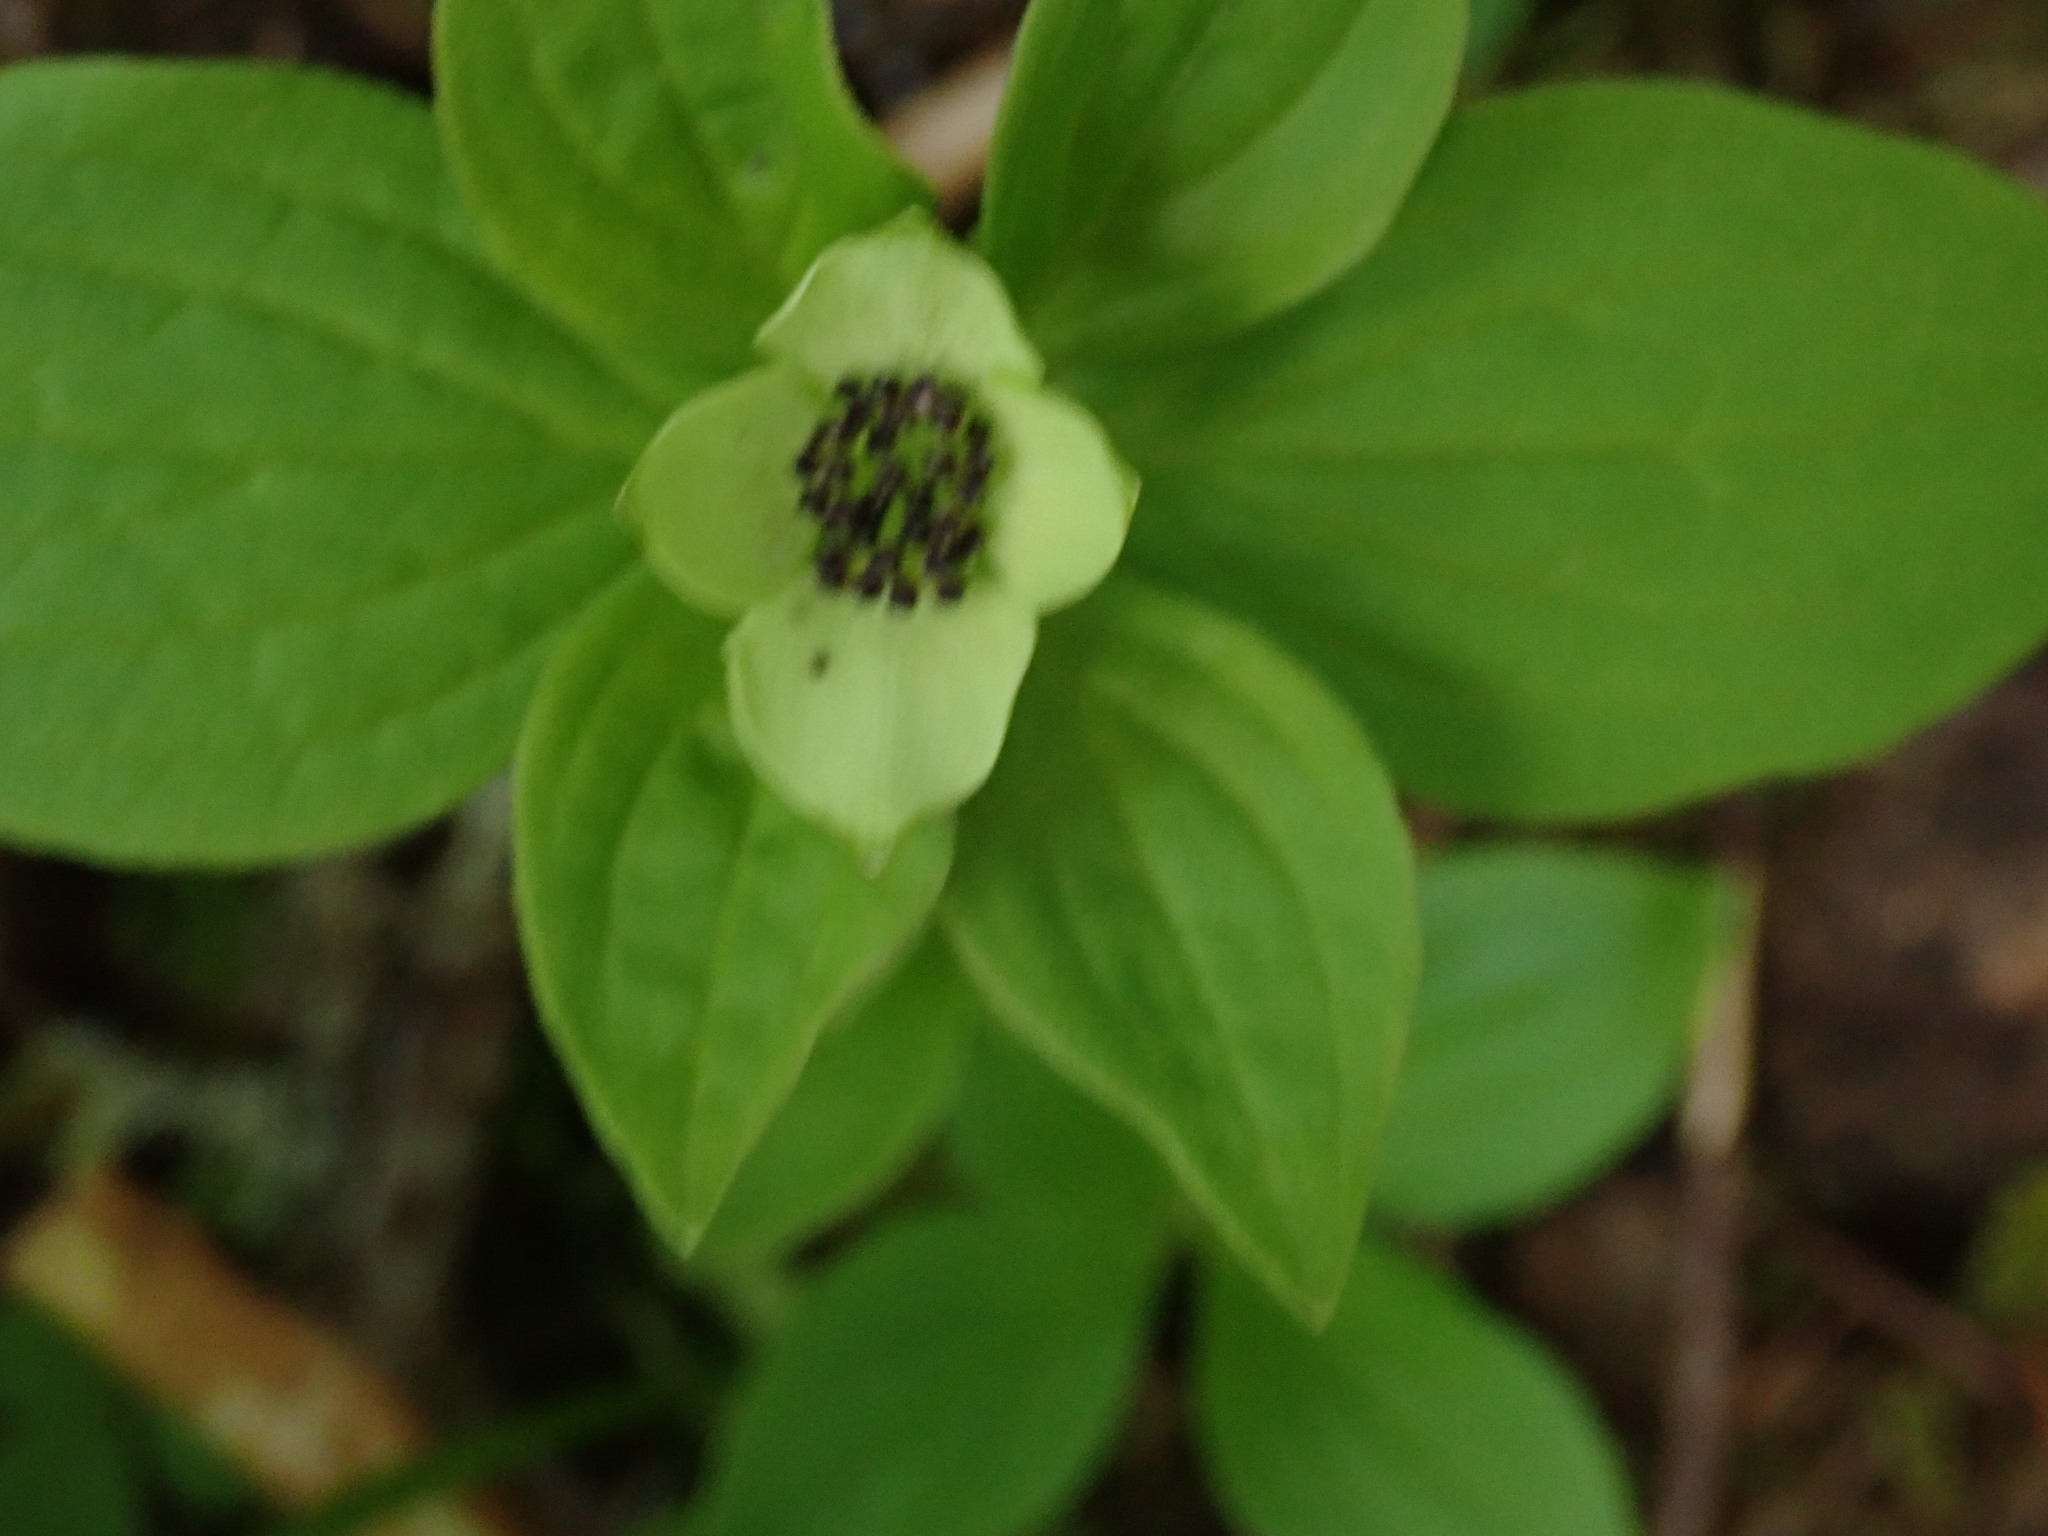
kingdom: Plantae
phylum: Tracheophyta
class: Magnoliopsida
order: Cornales
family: Cornaceae
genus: Cornus
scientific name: Cornus unalaschkensis
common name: Alaska bunchberry
